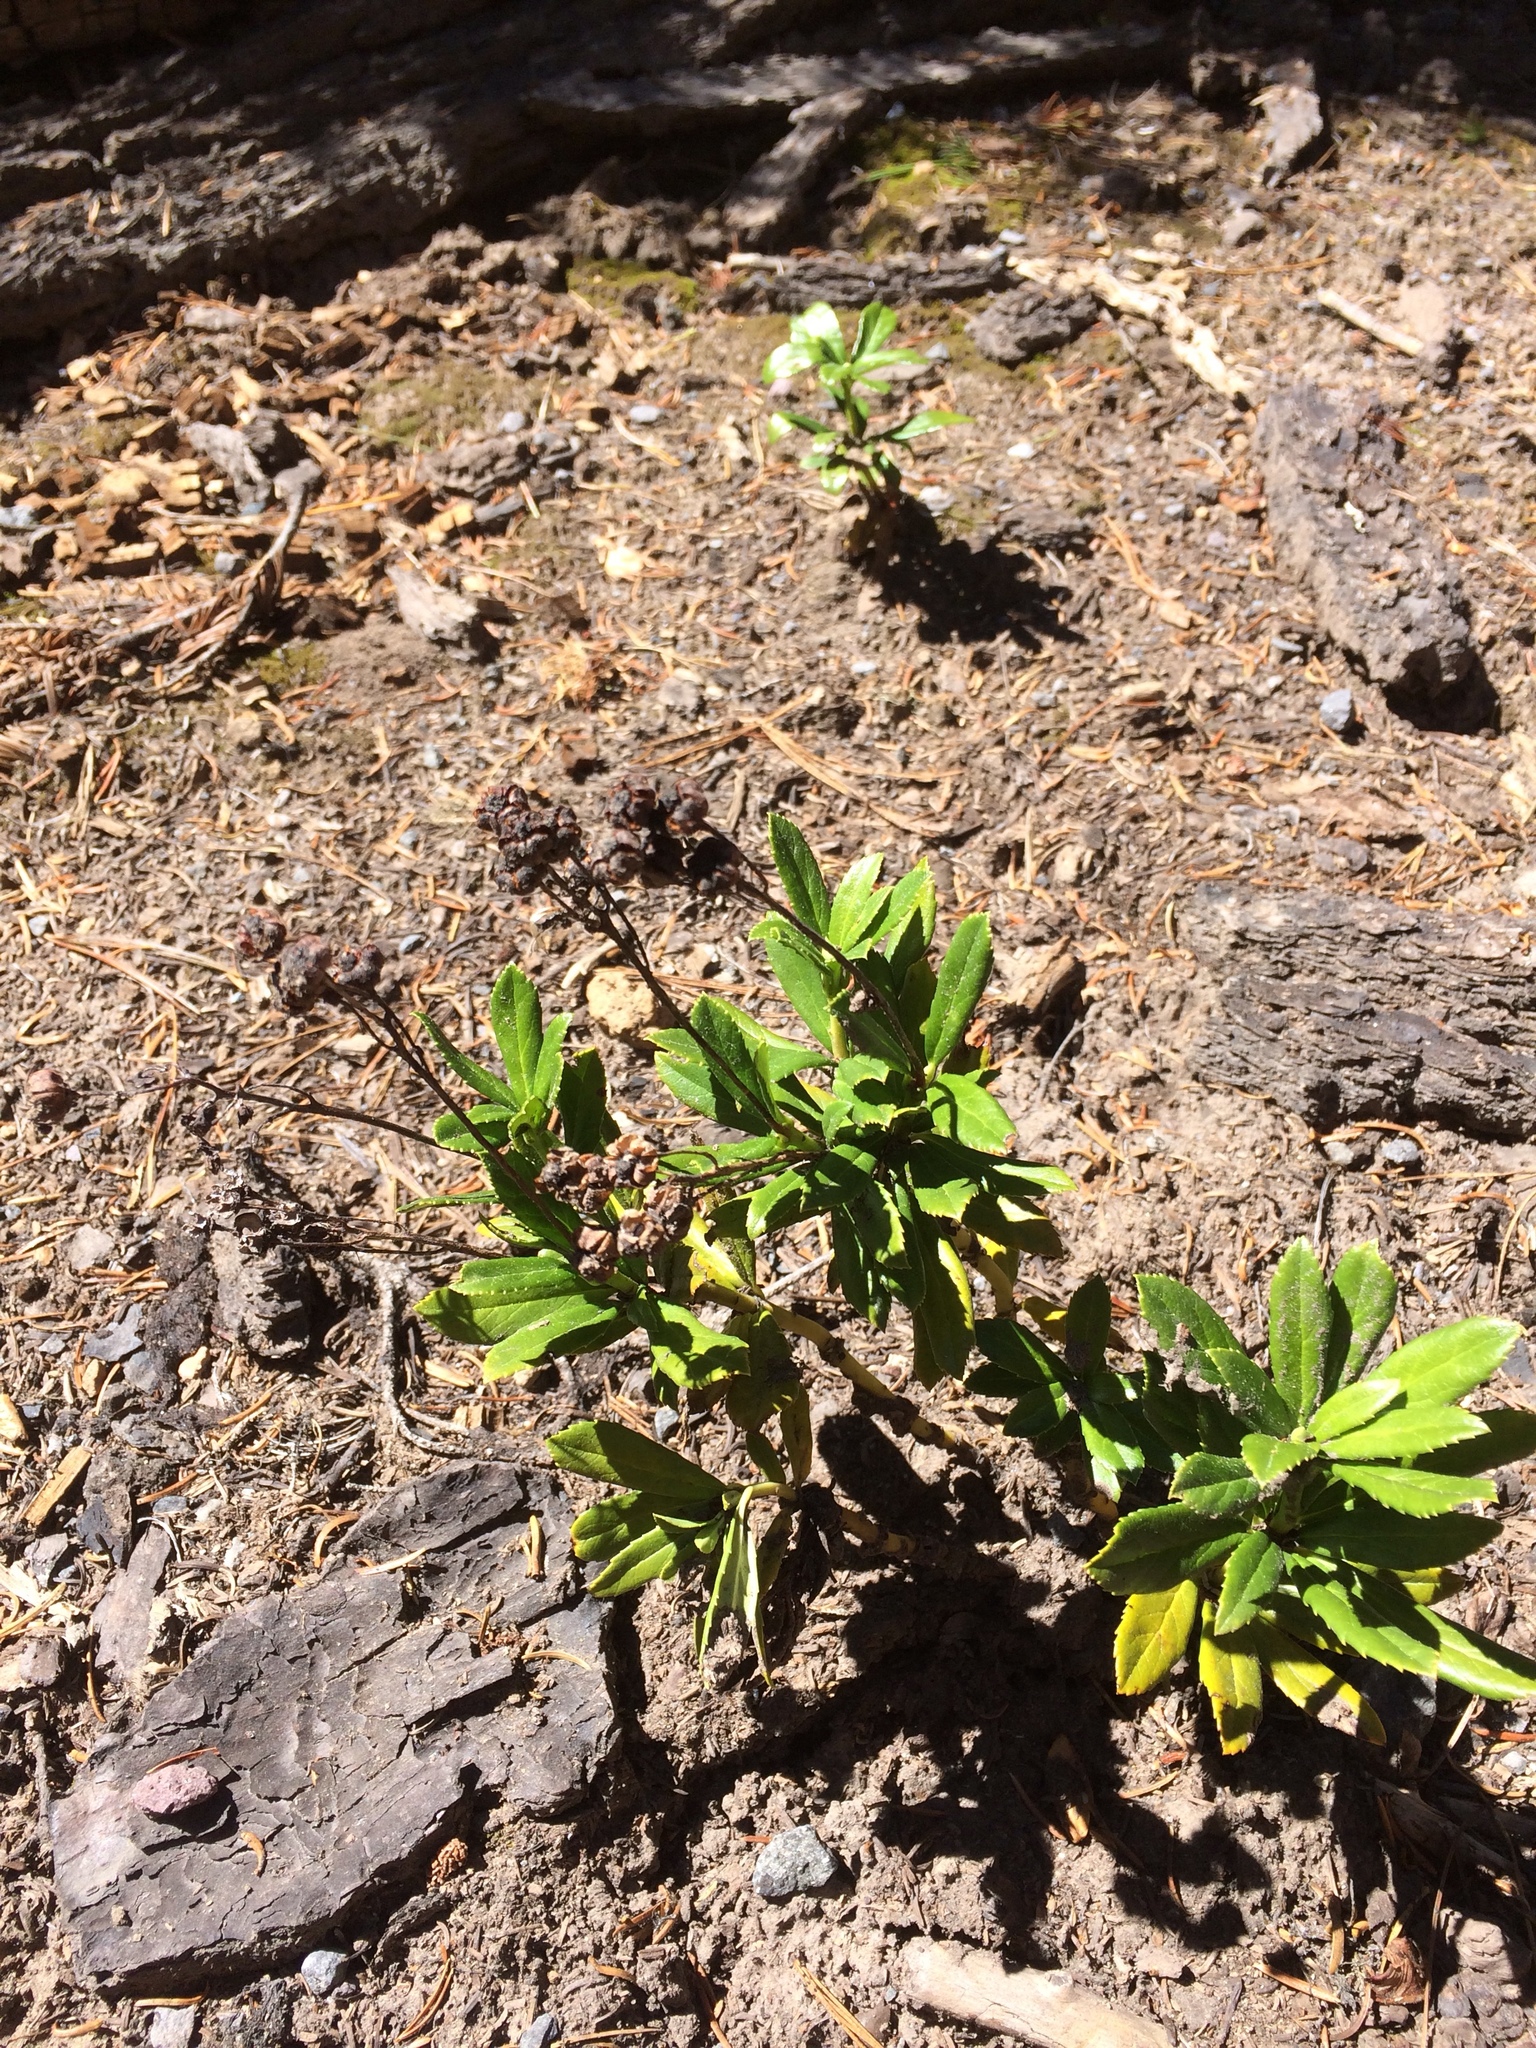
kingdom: Plantae
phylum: Tracheophyta
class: Magnoliopsida
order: Ericales
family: Ericaceae
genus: Chimaphila
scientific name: Chimaphila umbellata
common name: Pipsissewa
